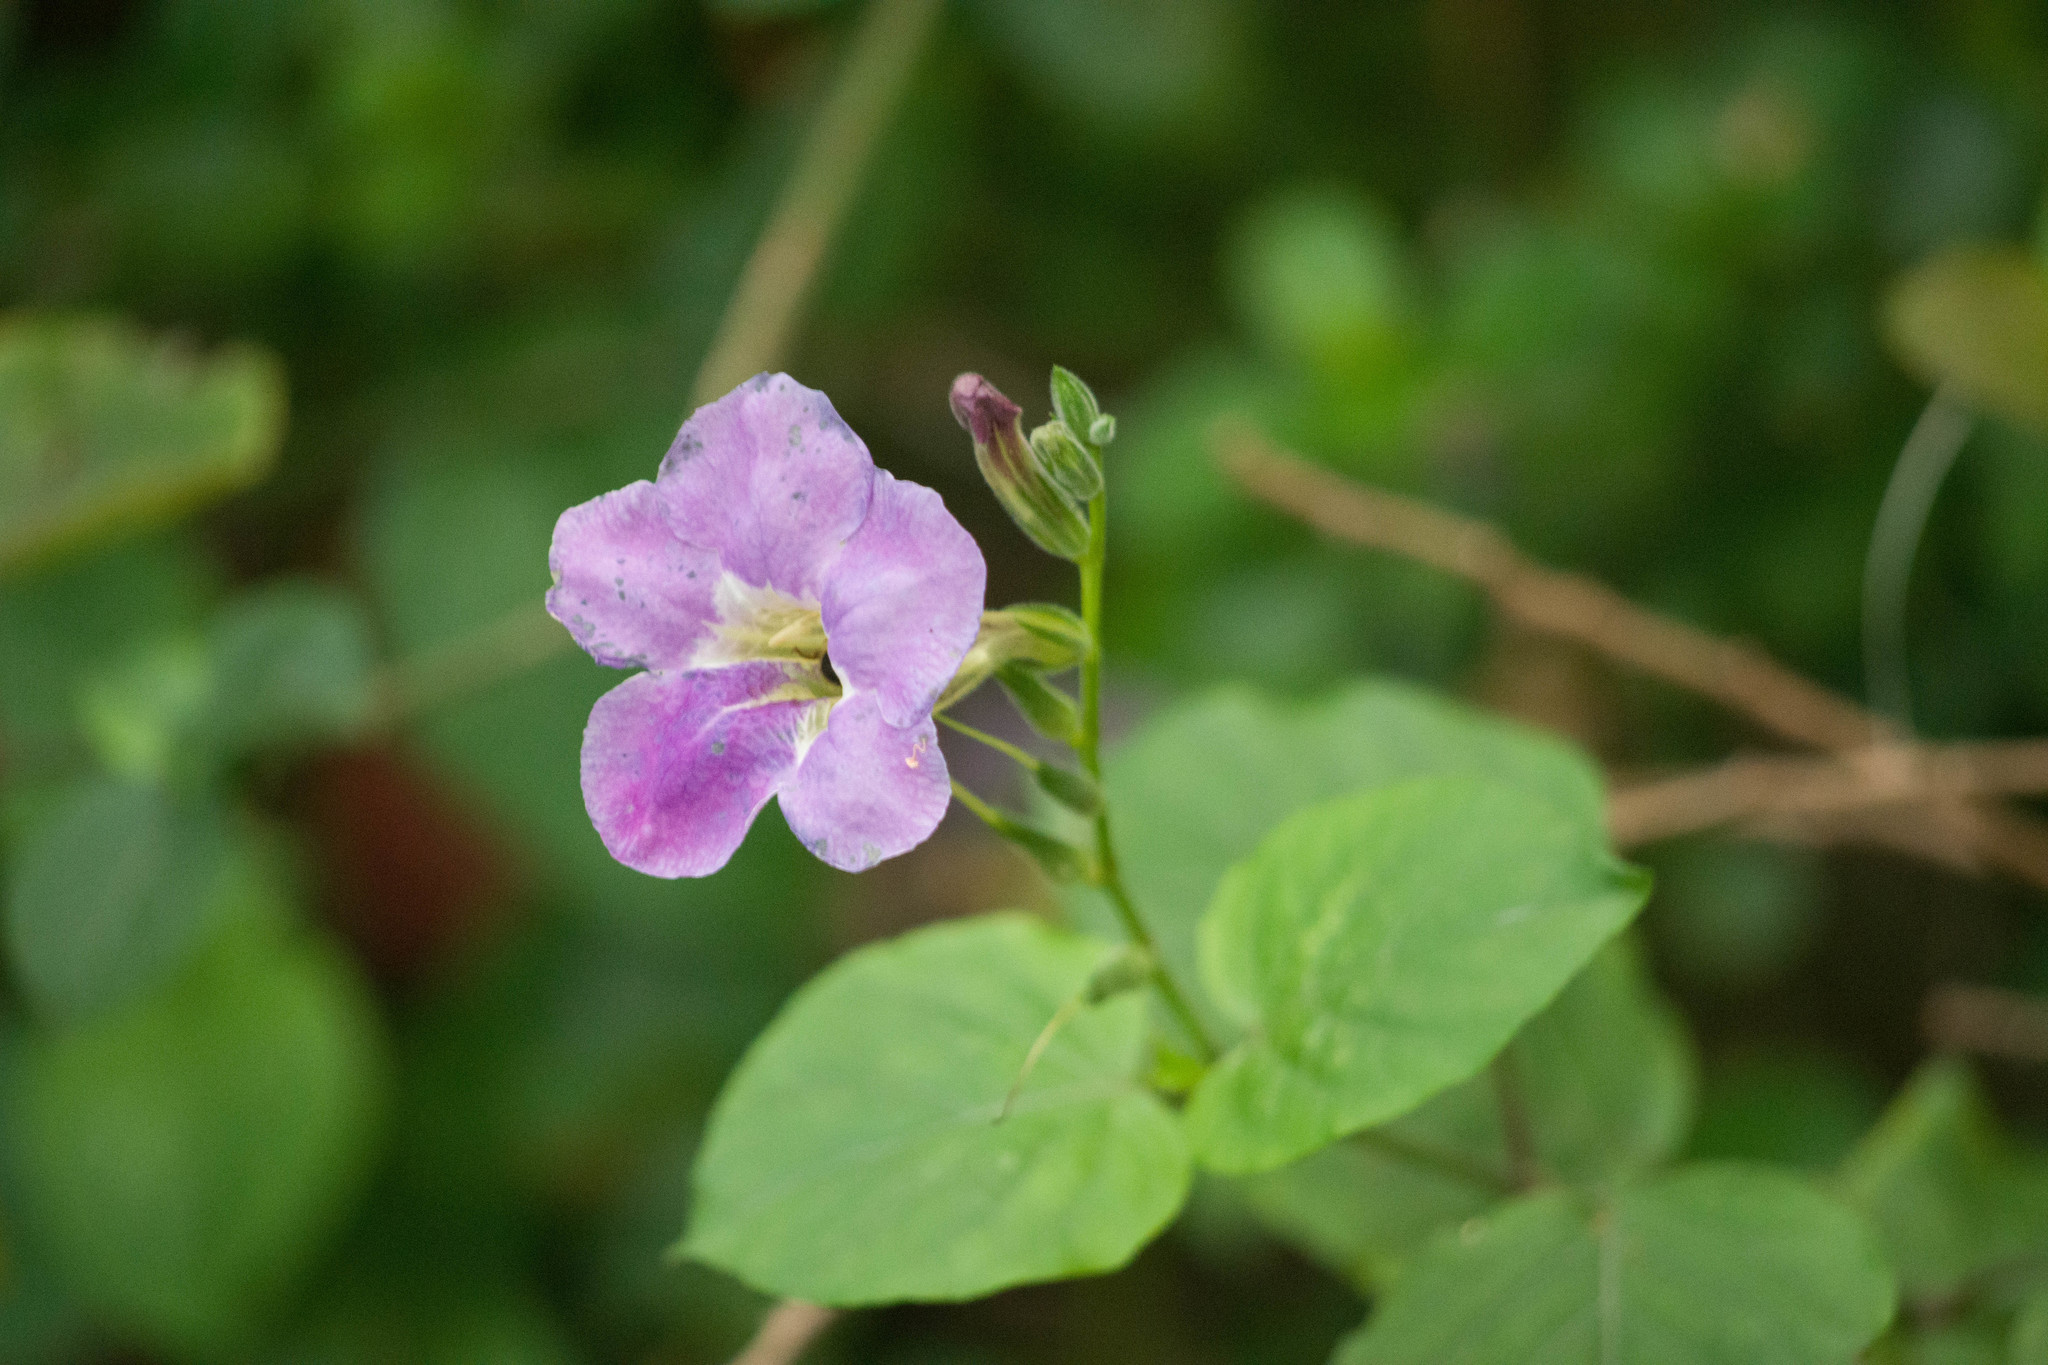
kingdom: Plantae
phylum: Tracheophyta
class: Magnoliopsida
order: Lamiales
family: Acanthaceae
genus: Asystasia
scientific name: Asystasia gangetica
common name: Chinese violet
